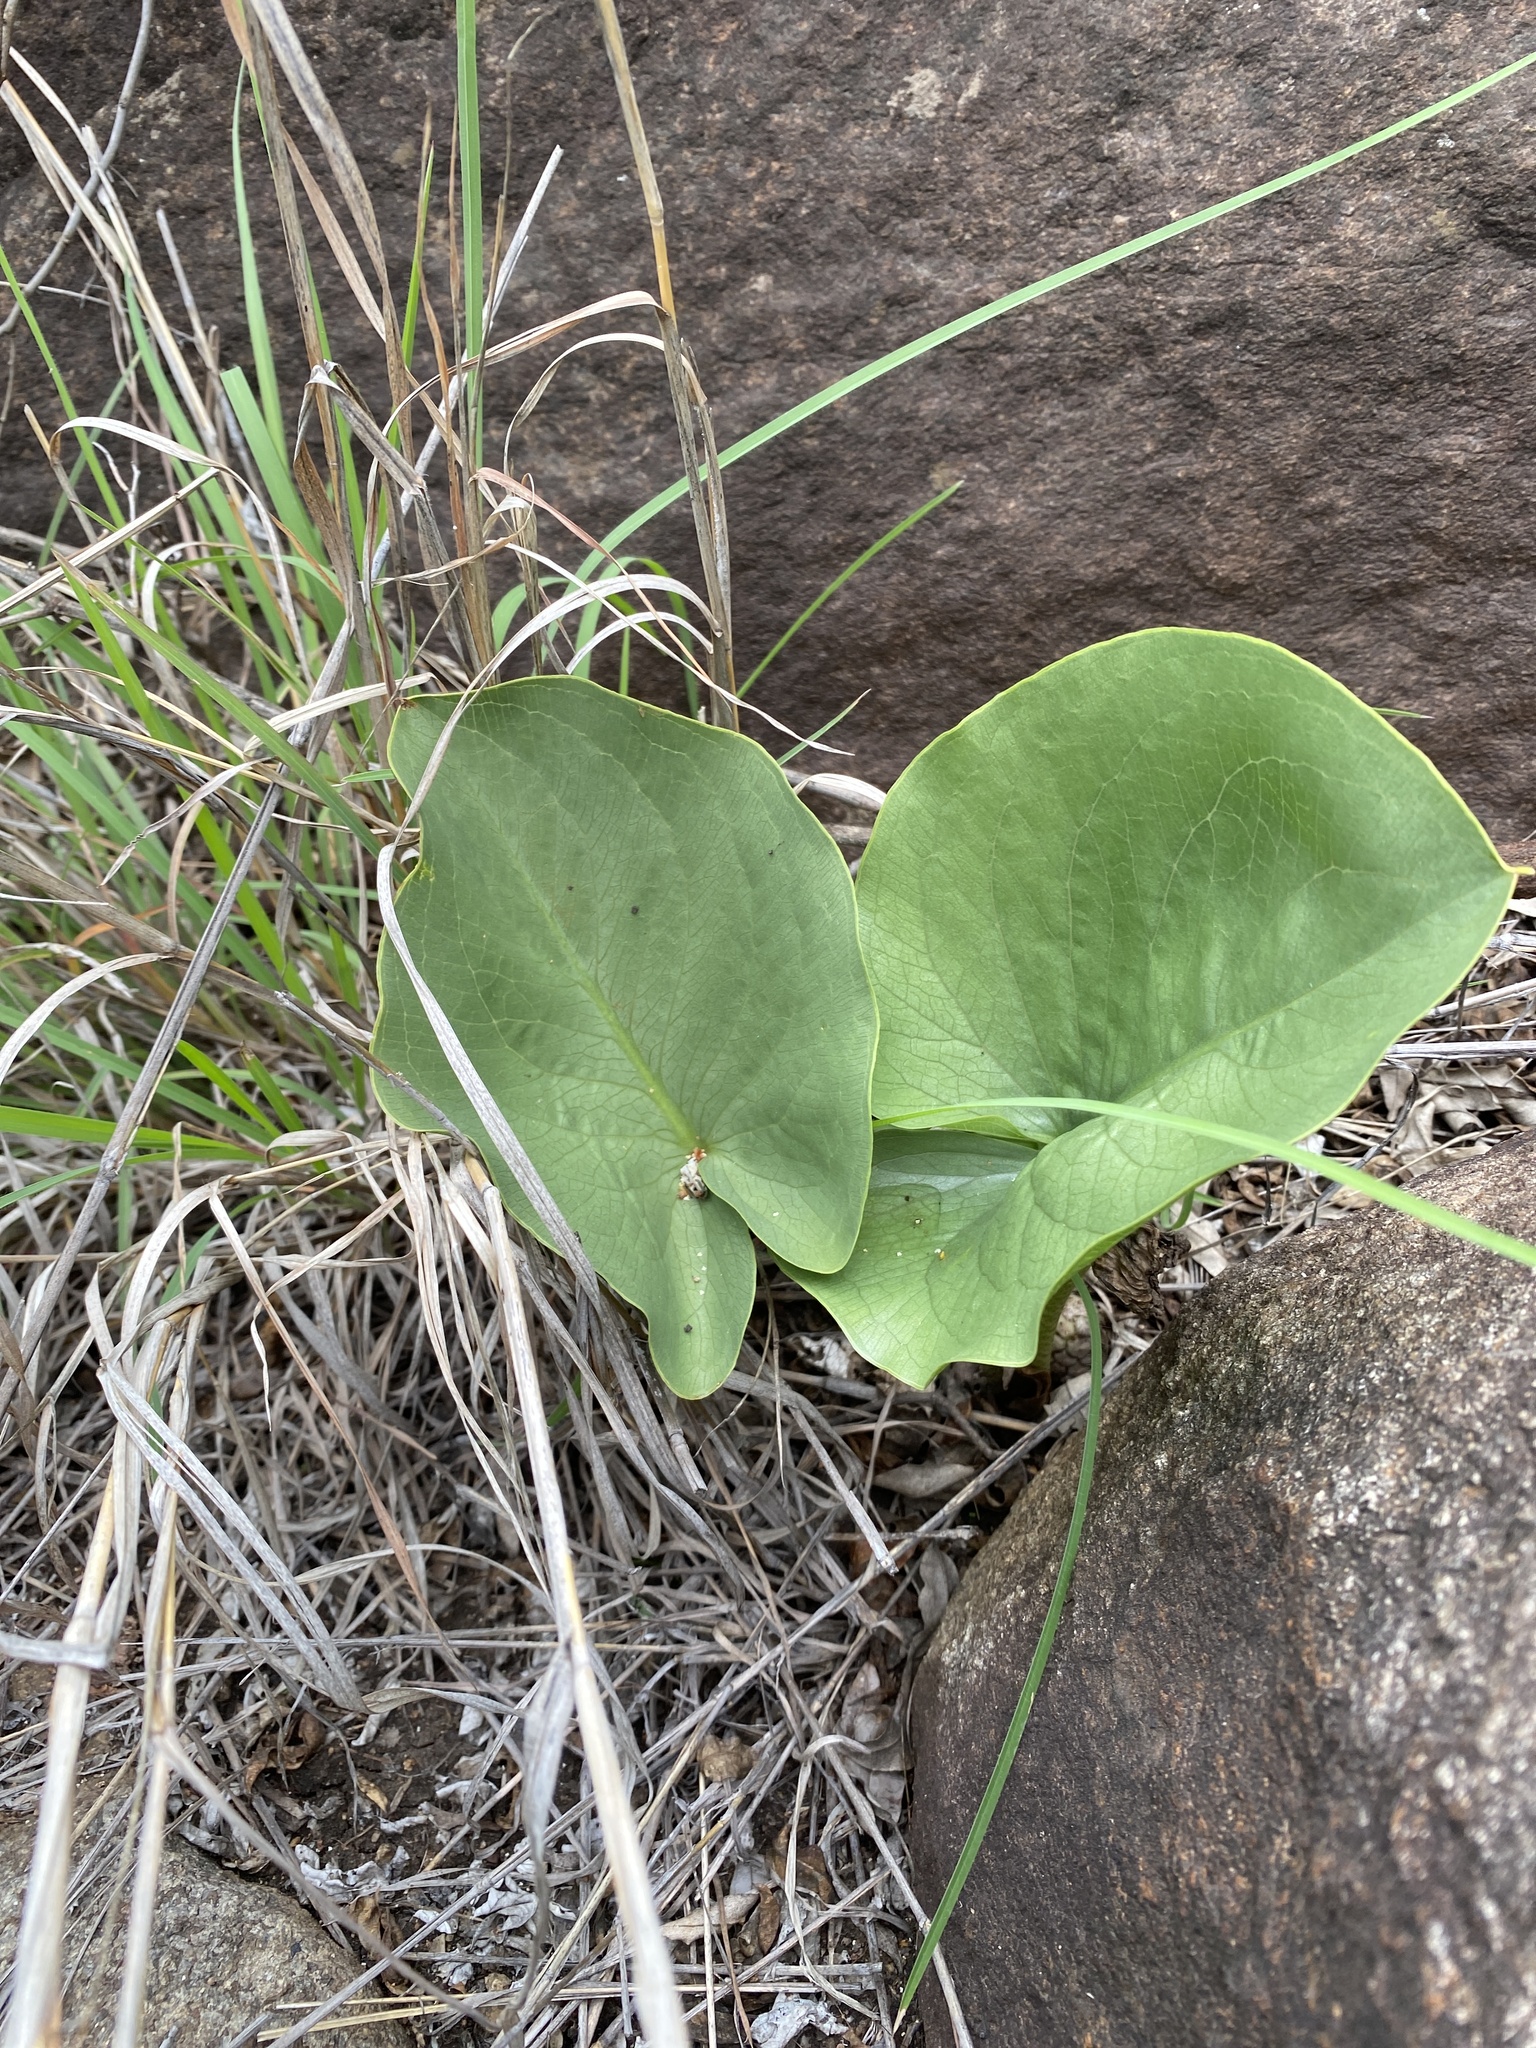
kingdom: Plantae
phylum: Tracheophyta
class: Liliopsida
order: Alismatales
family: Araceae
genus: Stylochaeton
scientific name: Stylochaeton natalensis
